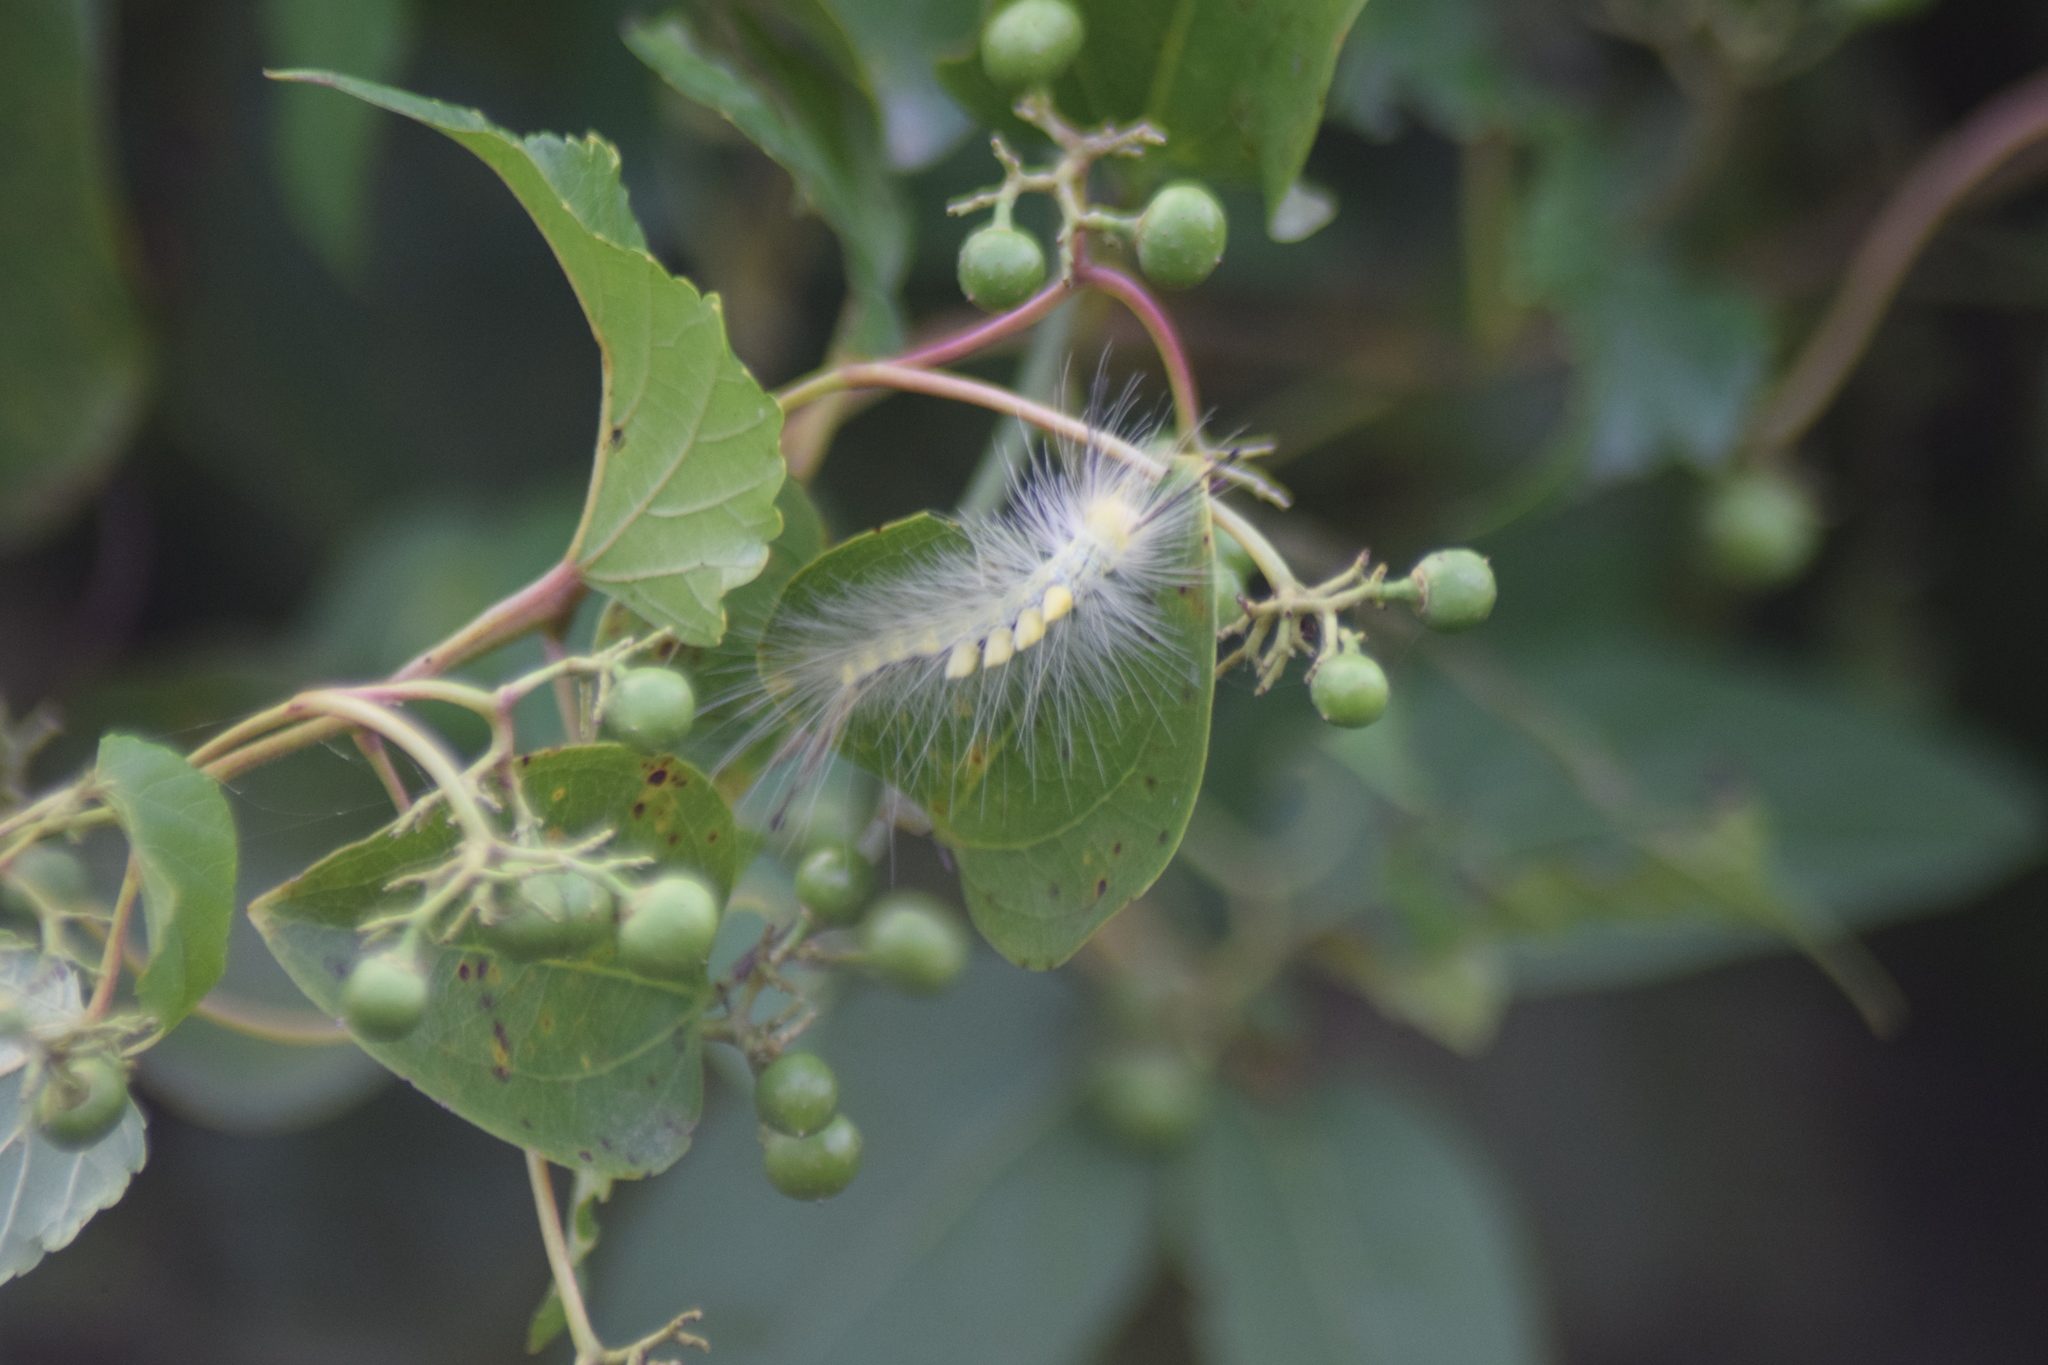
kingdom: Animalia
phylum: Arthropoda
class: Insecta
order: Lepidoptera
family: Erebidae
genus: Orgyia
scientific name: Orgyia definita
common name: Definite tussock moth
